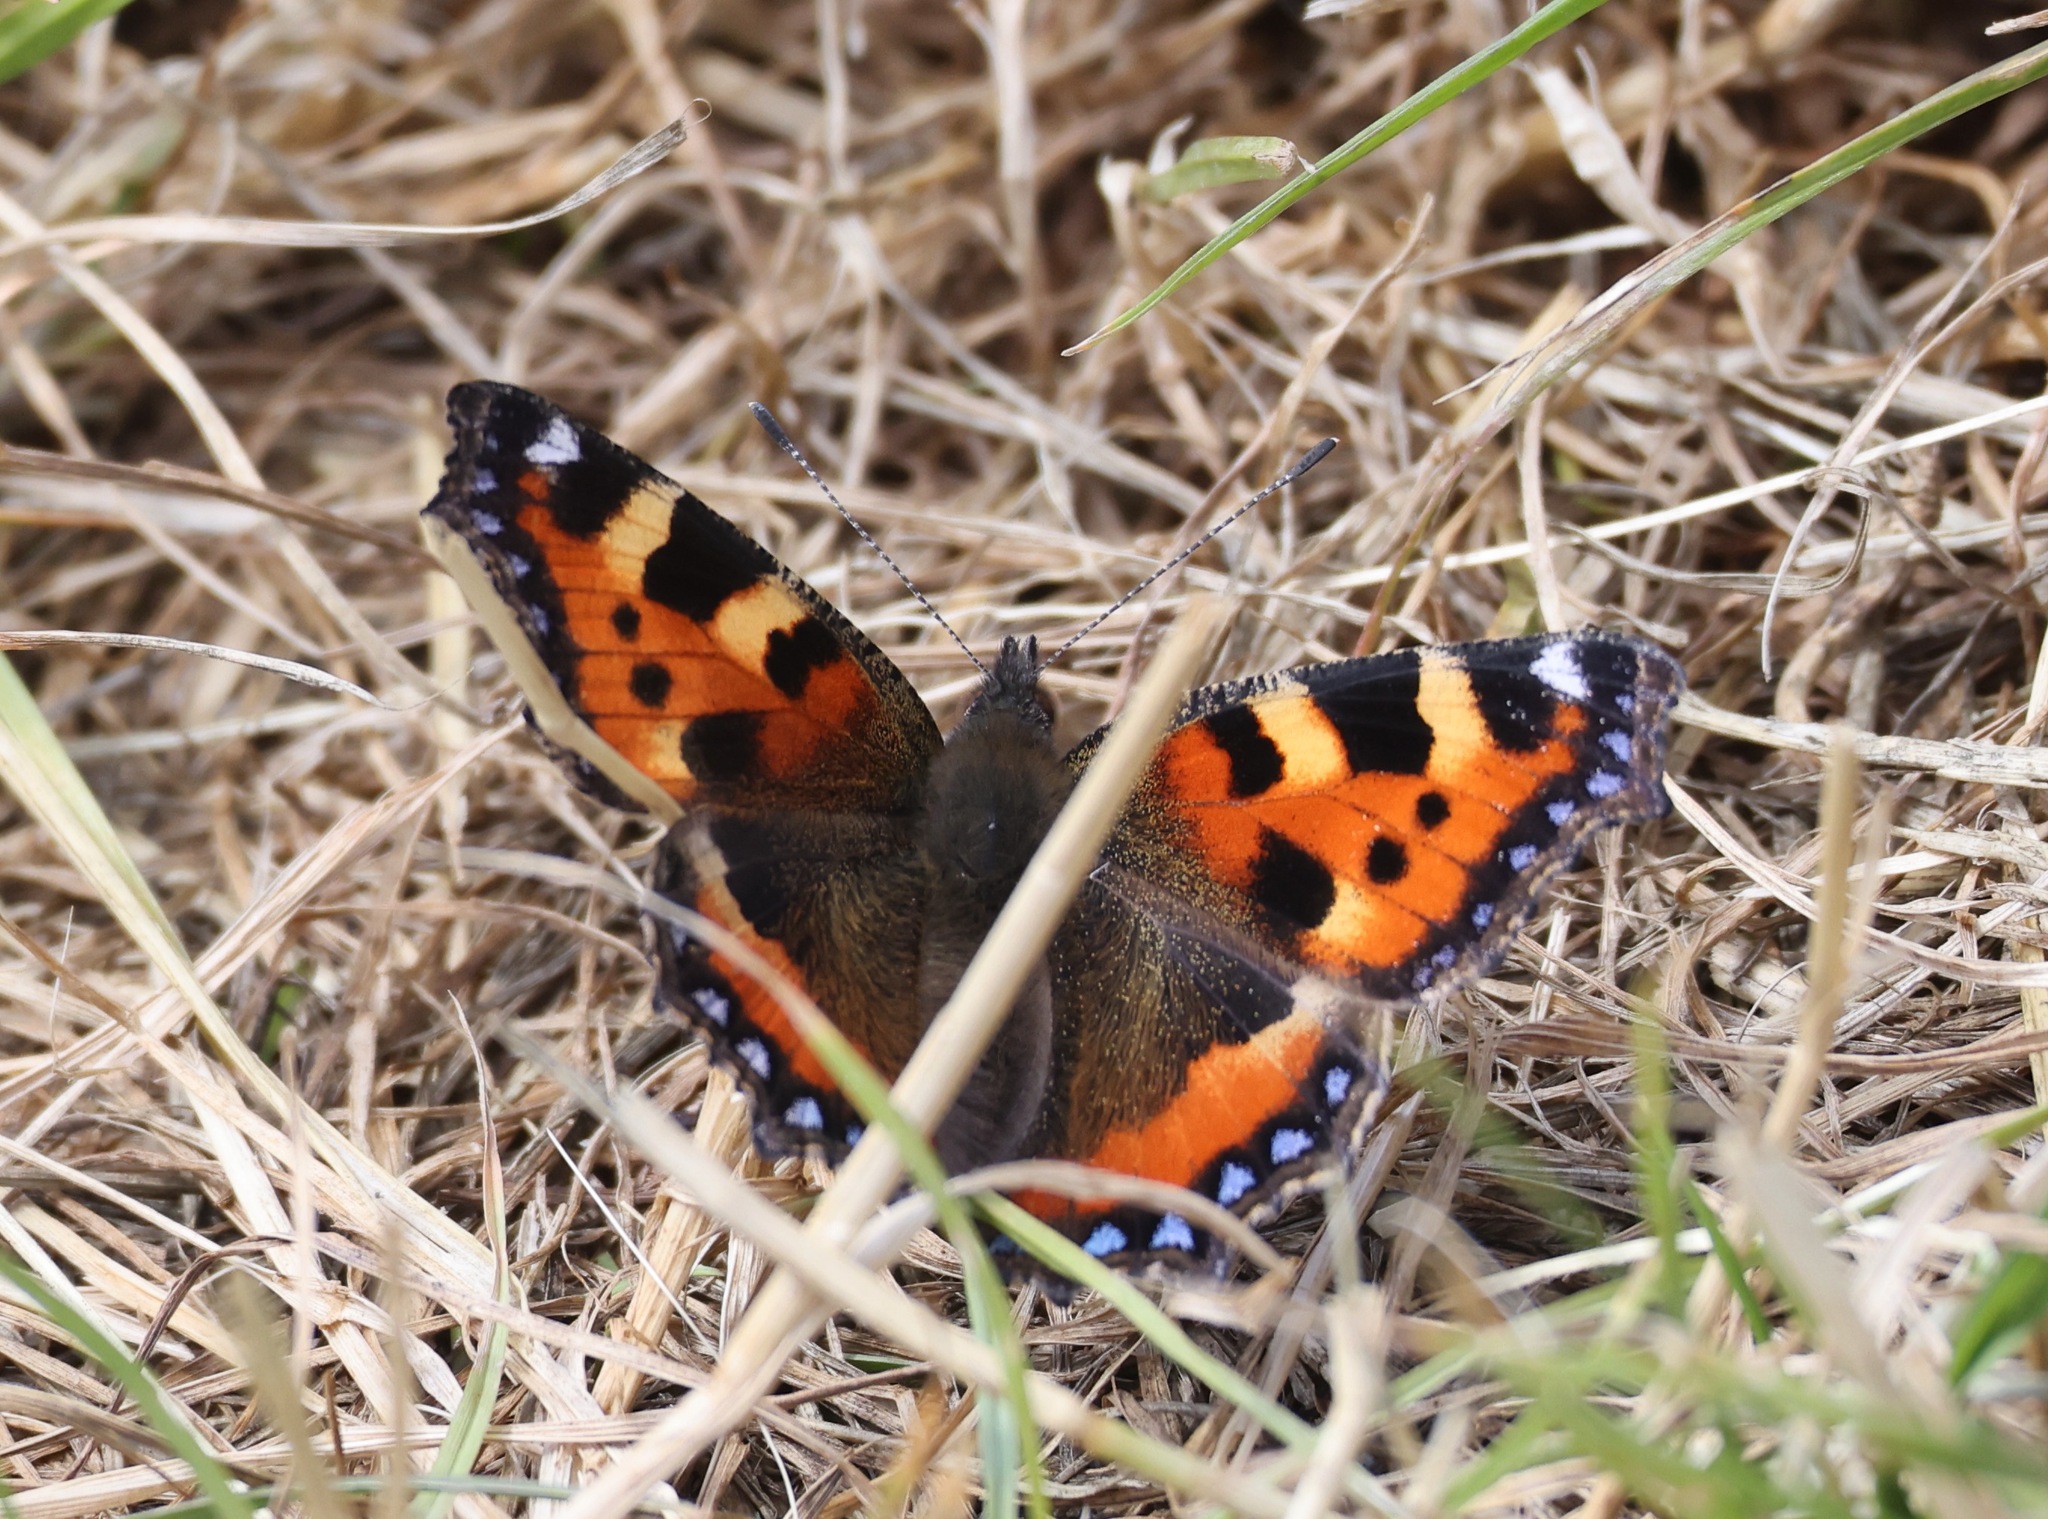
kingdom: Animalia
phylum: Arthropoda
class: Insecta
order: Lepidoptera
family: Nymphalidae
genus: Aglais
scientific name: Aglais urticae
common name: Small tortoiseshell
